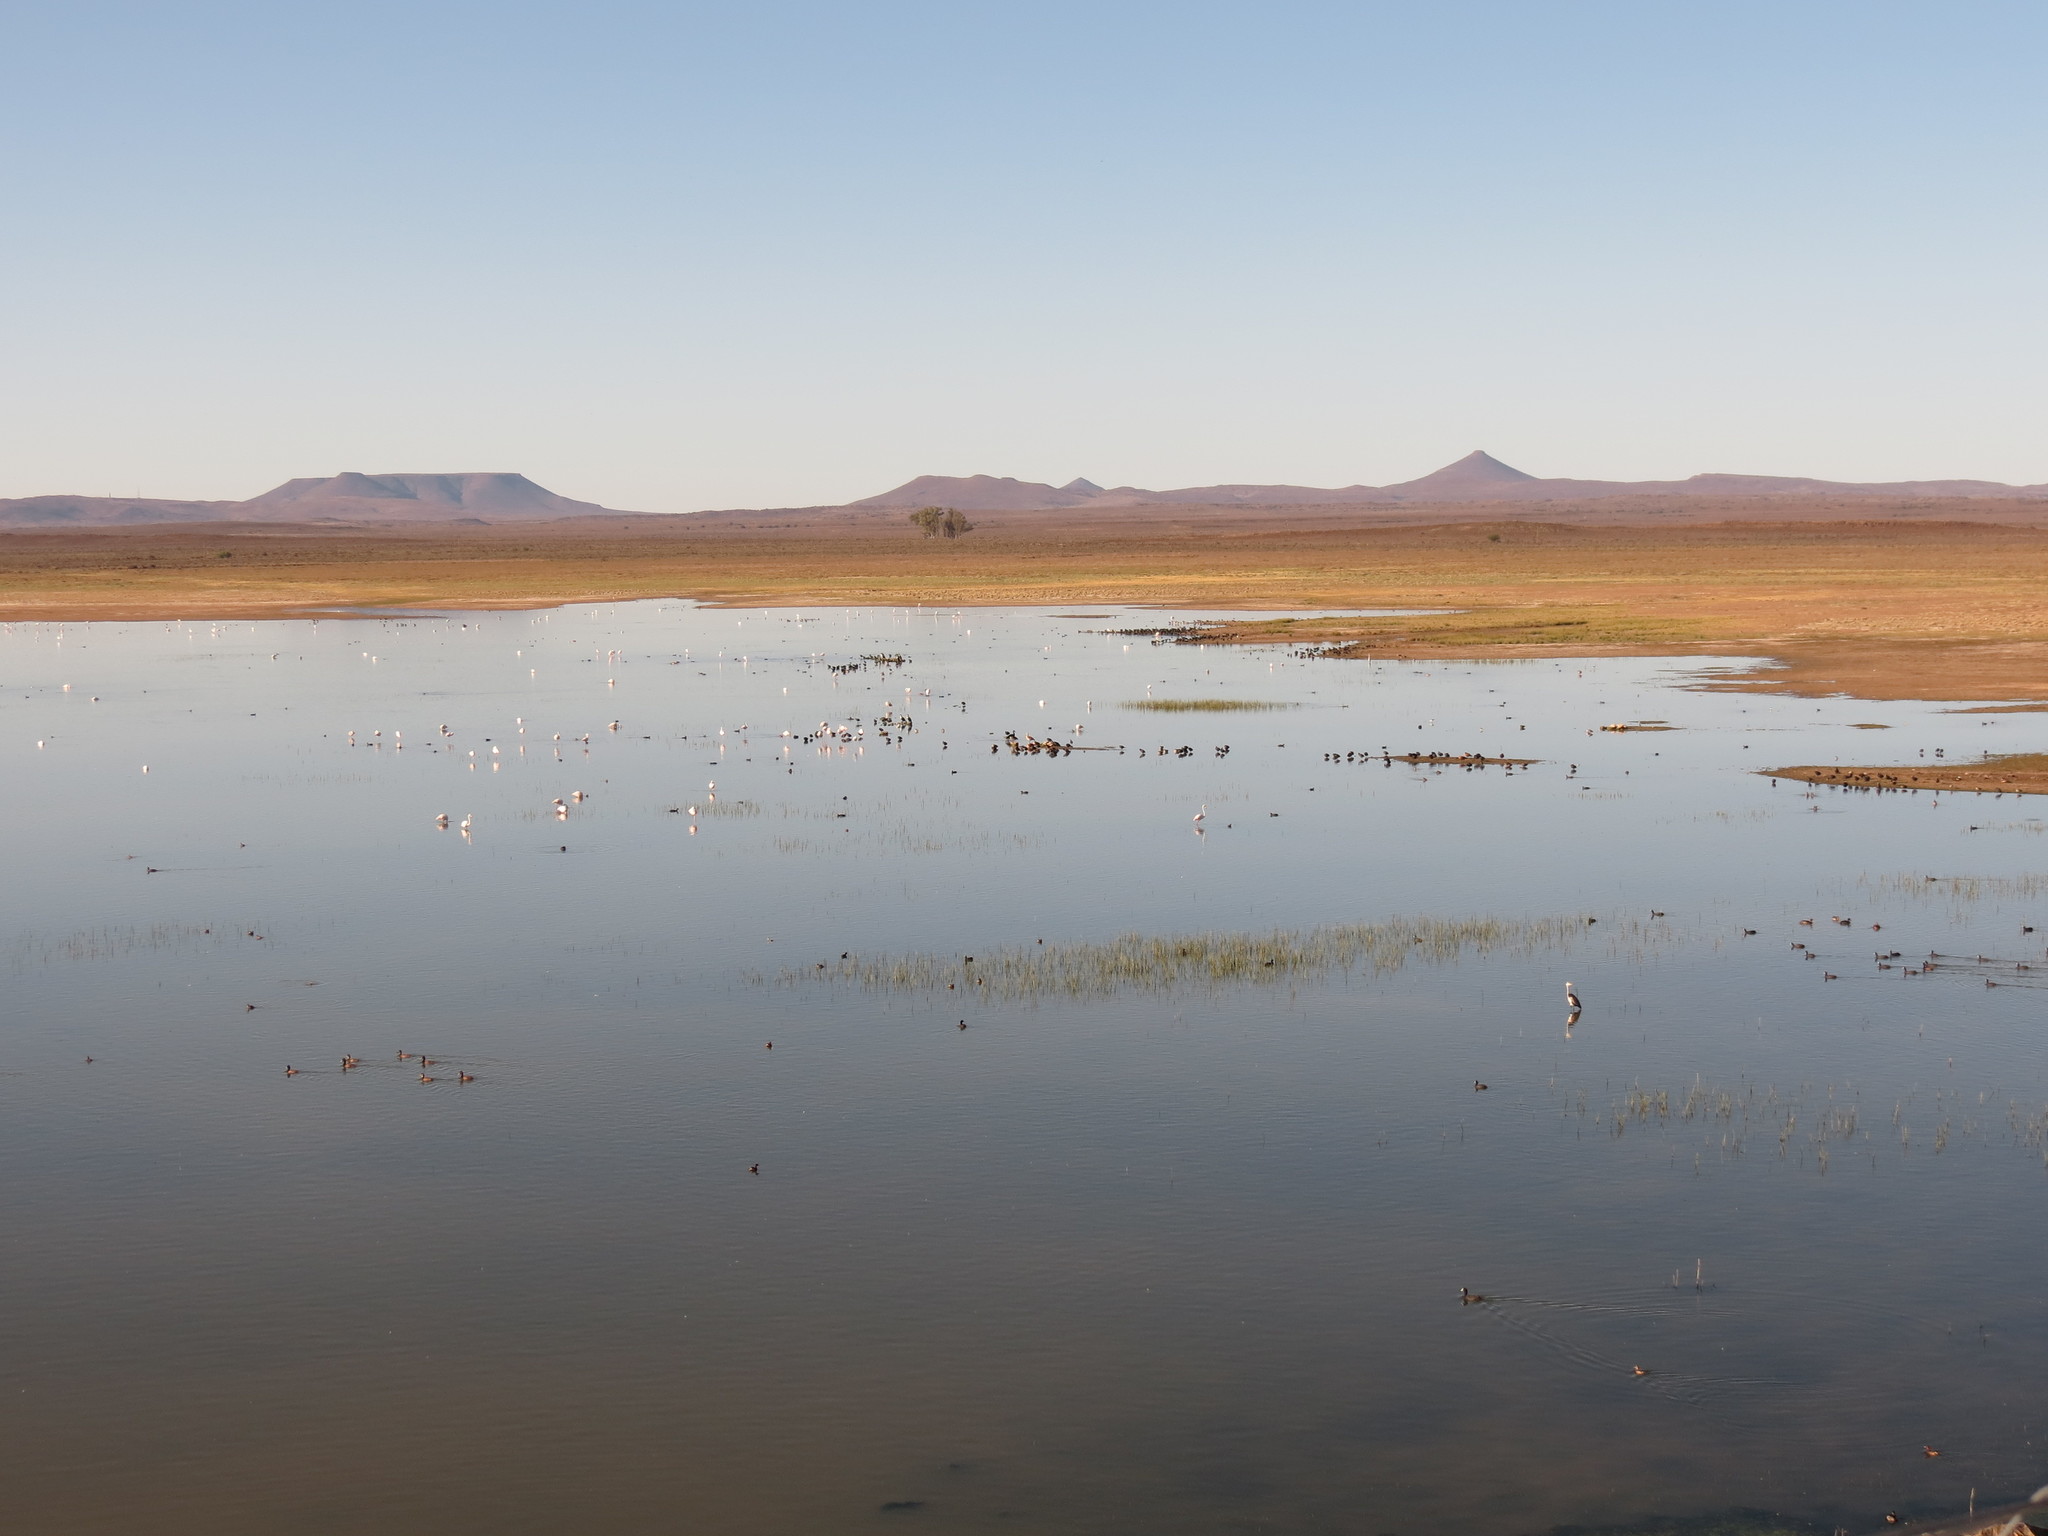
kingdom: Animalia
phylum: Chordata
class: Aves
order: Pelecaniformes
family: Ardeidae
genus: Ardea
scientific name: Ardea cinerea
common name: Grey heron
